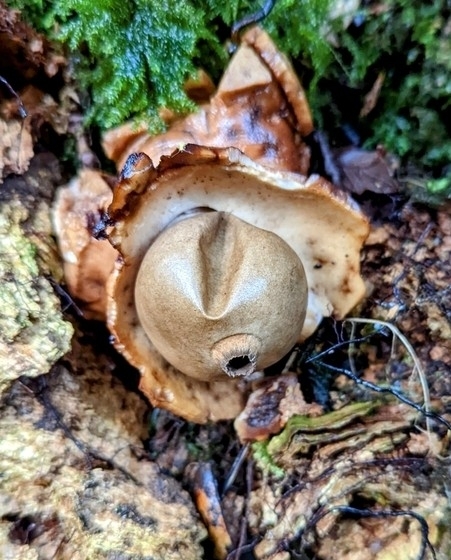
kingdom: Fungi
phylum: Basidiomycota
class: Agaricomycetes
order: Geastrales
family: Geastraceae
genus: Geastrum
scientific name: Geastrum triplex
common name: Collared earthstar
